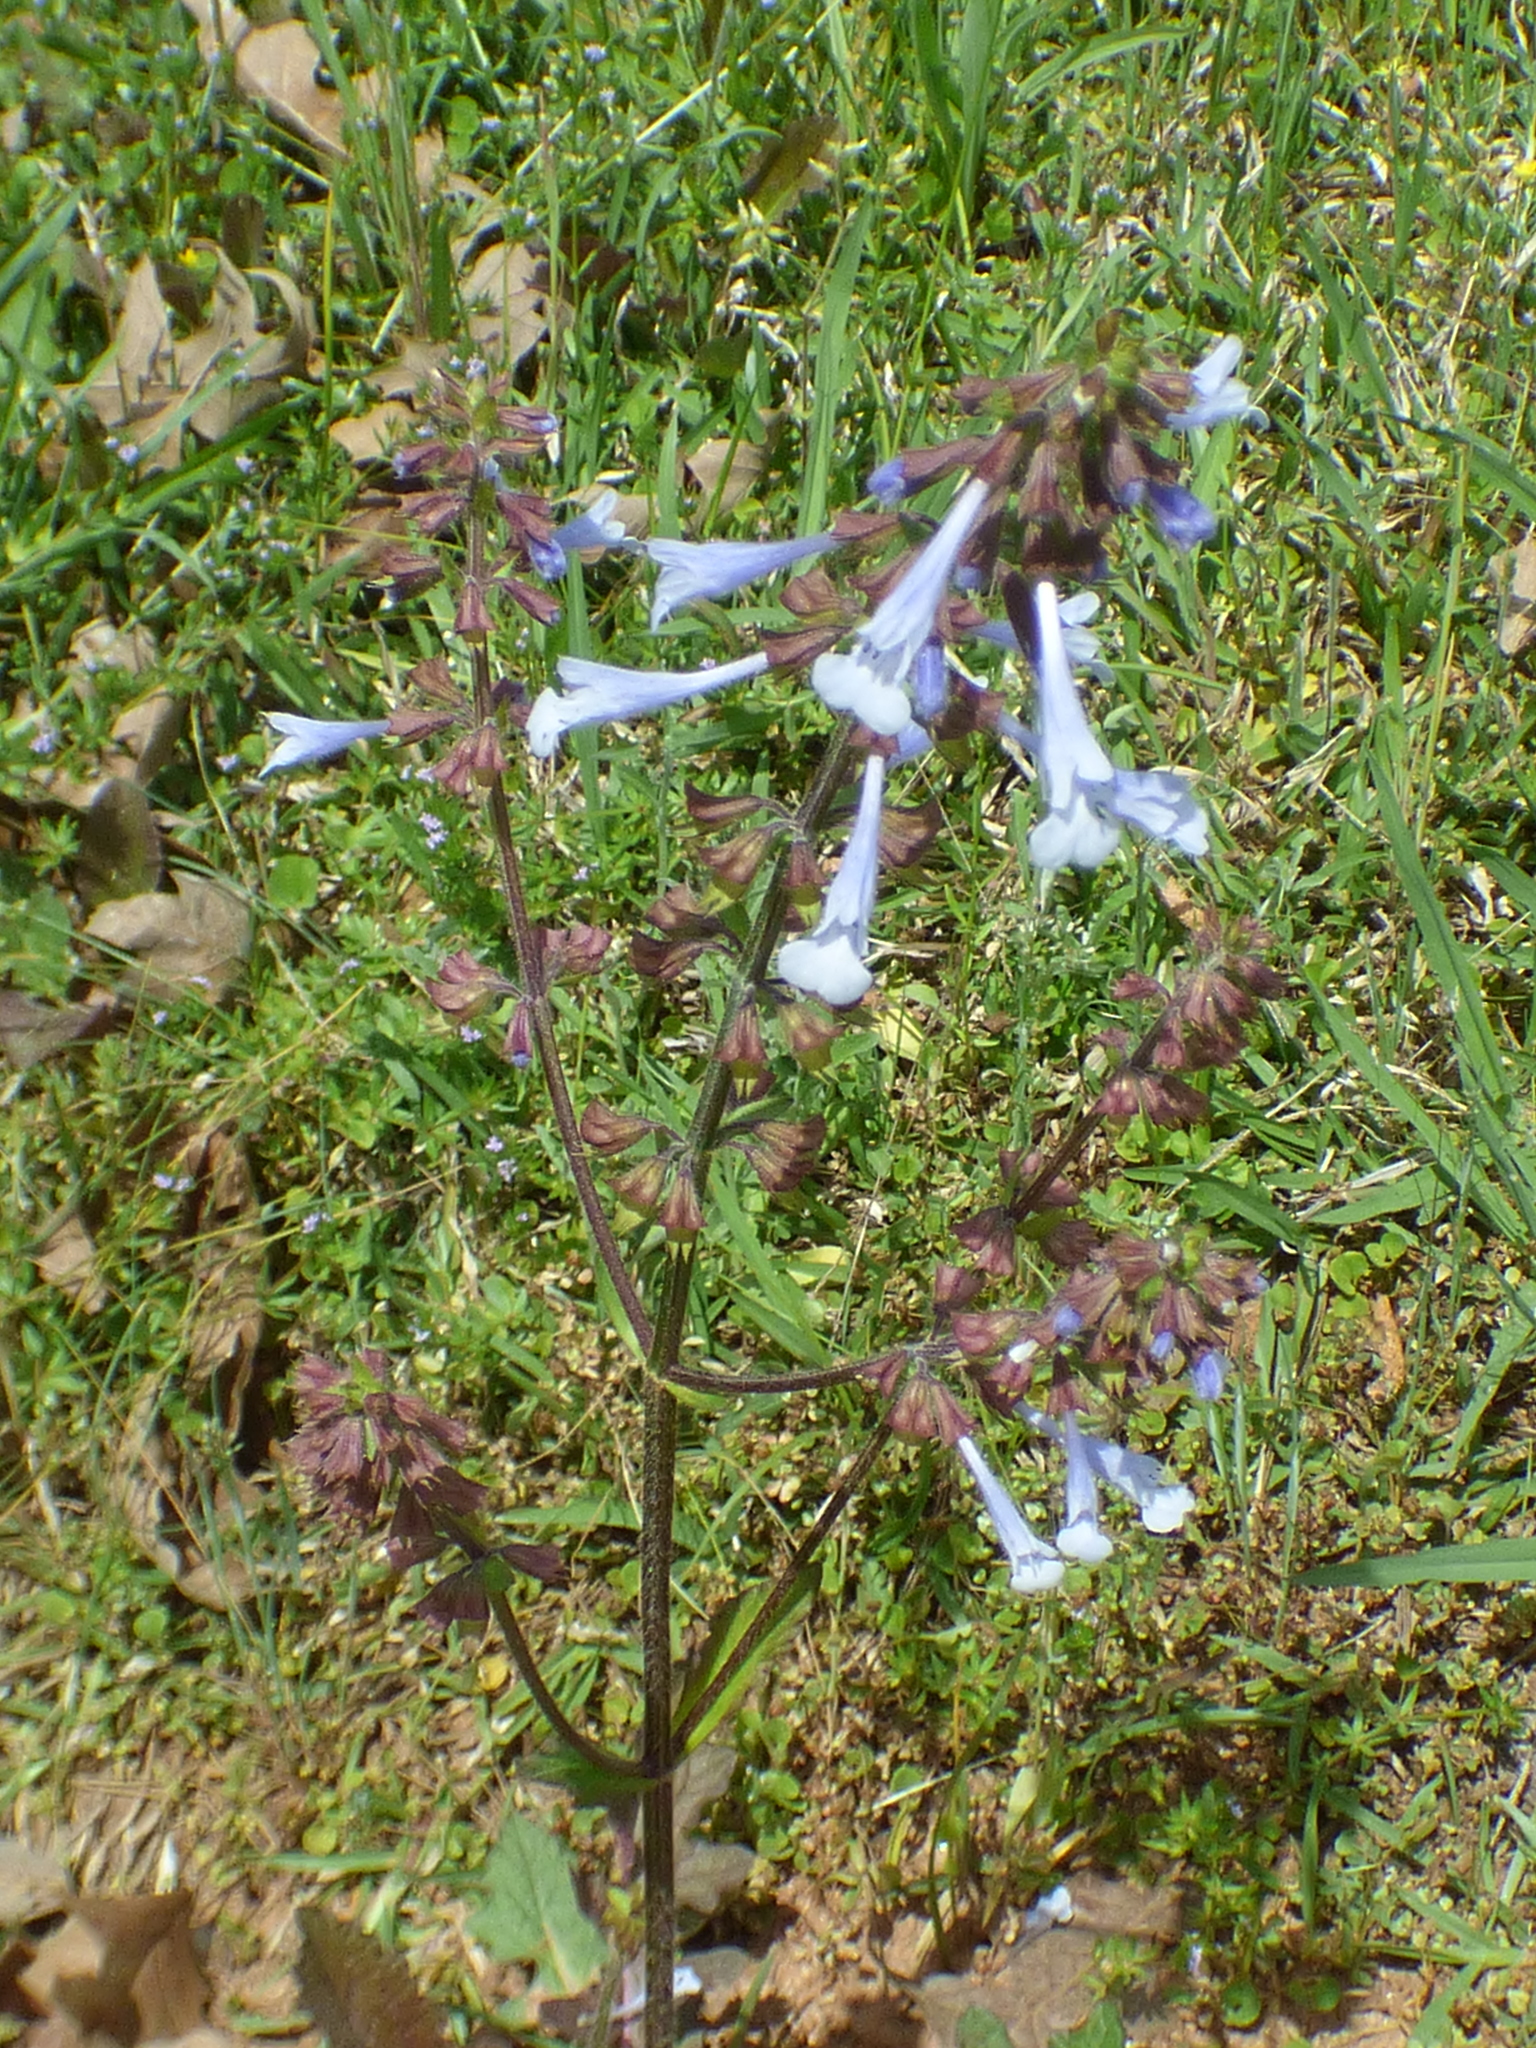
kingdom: Plantae
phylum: Tracheophyta
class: Magnoliopsida
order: Lamiales
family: Lamiaceae
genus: Salvia
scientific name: Salvia lyrata
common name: Cancerweed
